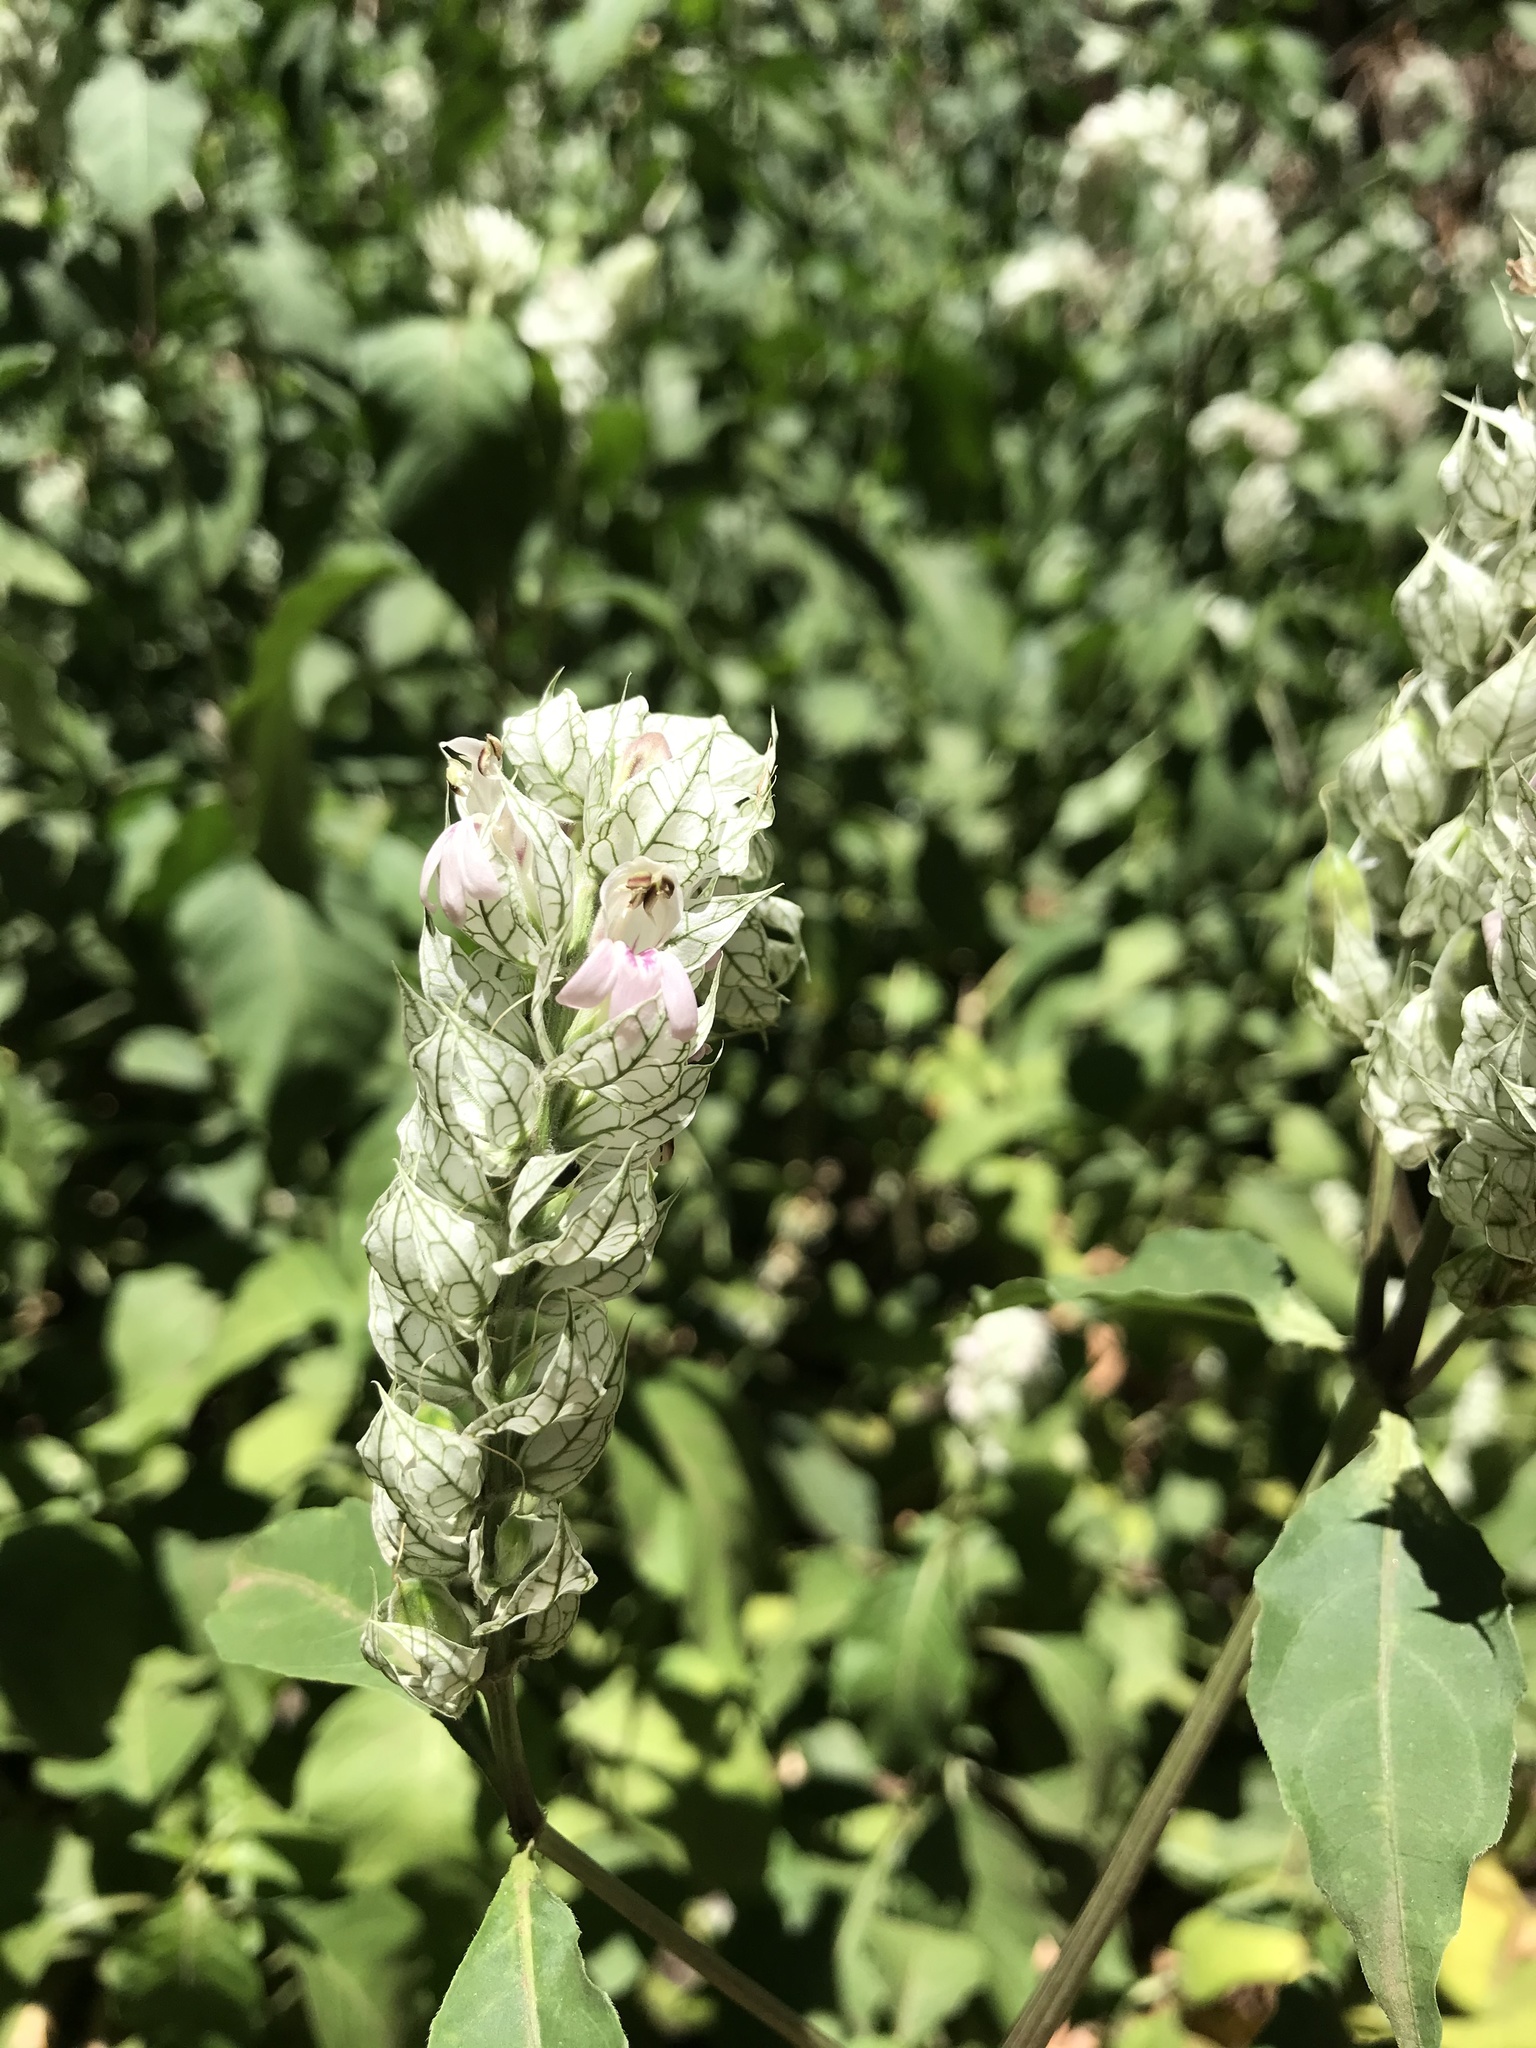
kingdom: Plantae
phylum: Tracheophyta
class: Magnoliopsida
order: Lamiales
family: Acanthaceae
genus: Justicia
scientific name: Justicia betonica
